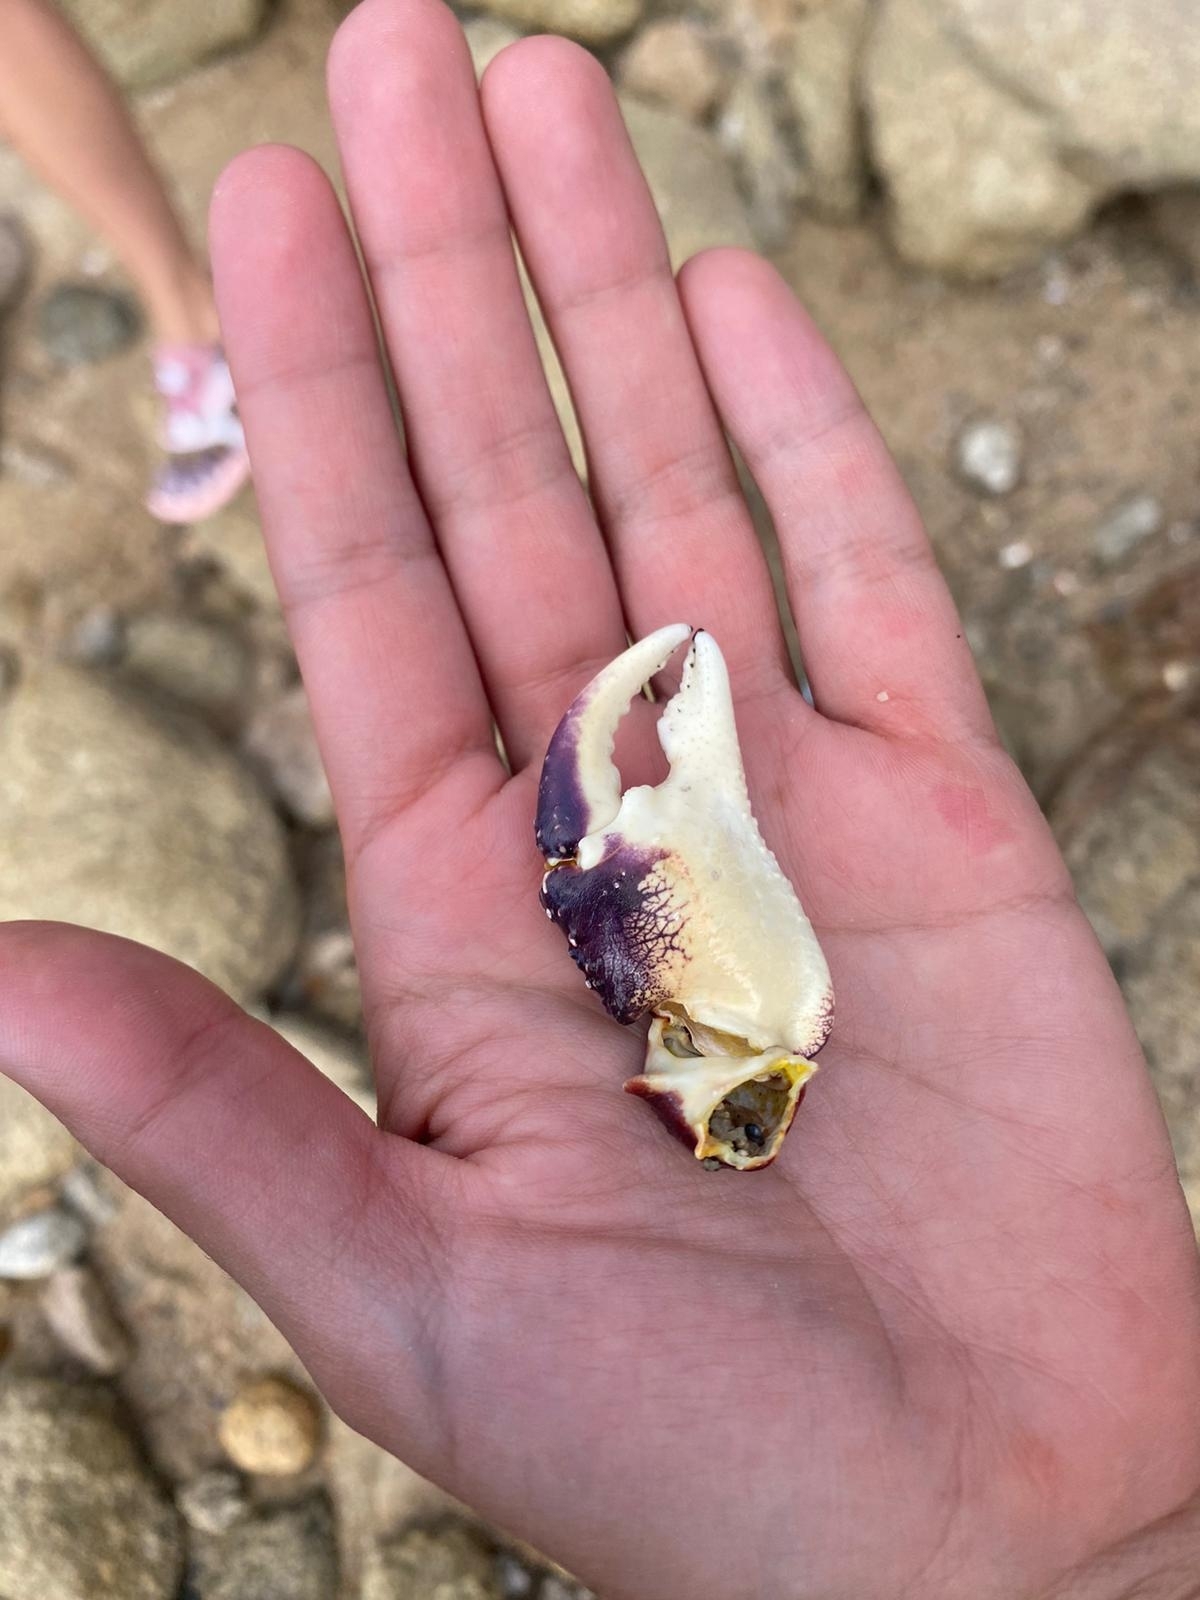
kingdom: Animalia
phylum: Arthropoda
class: Malacostraca
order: Decapoda
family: Grapsidae
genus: Leptograpsus
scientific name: Leptograpsus variegatus
